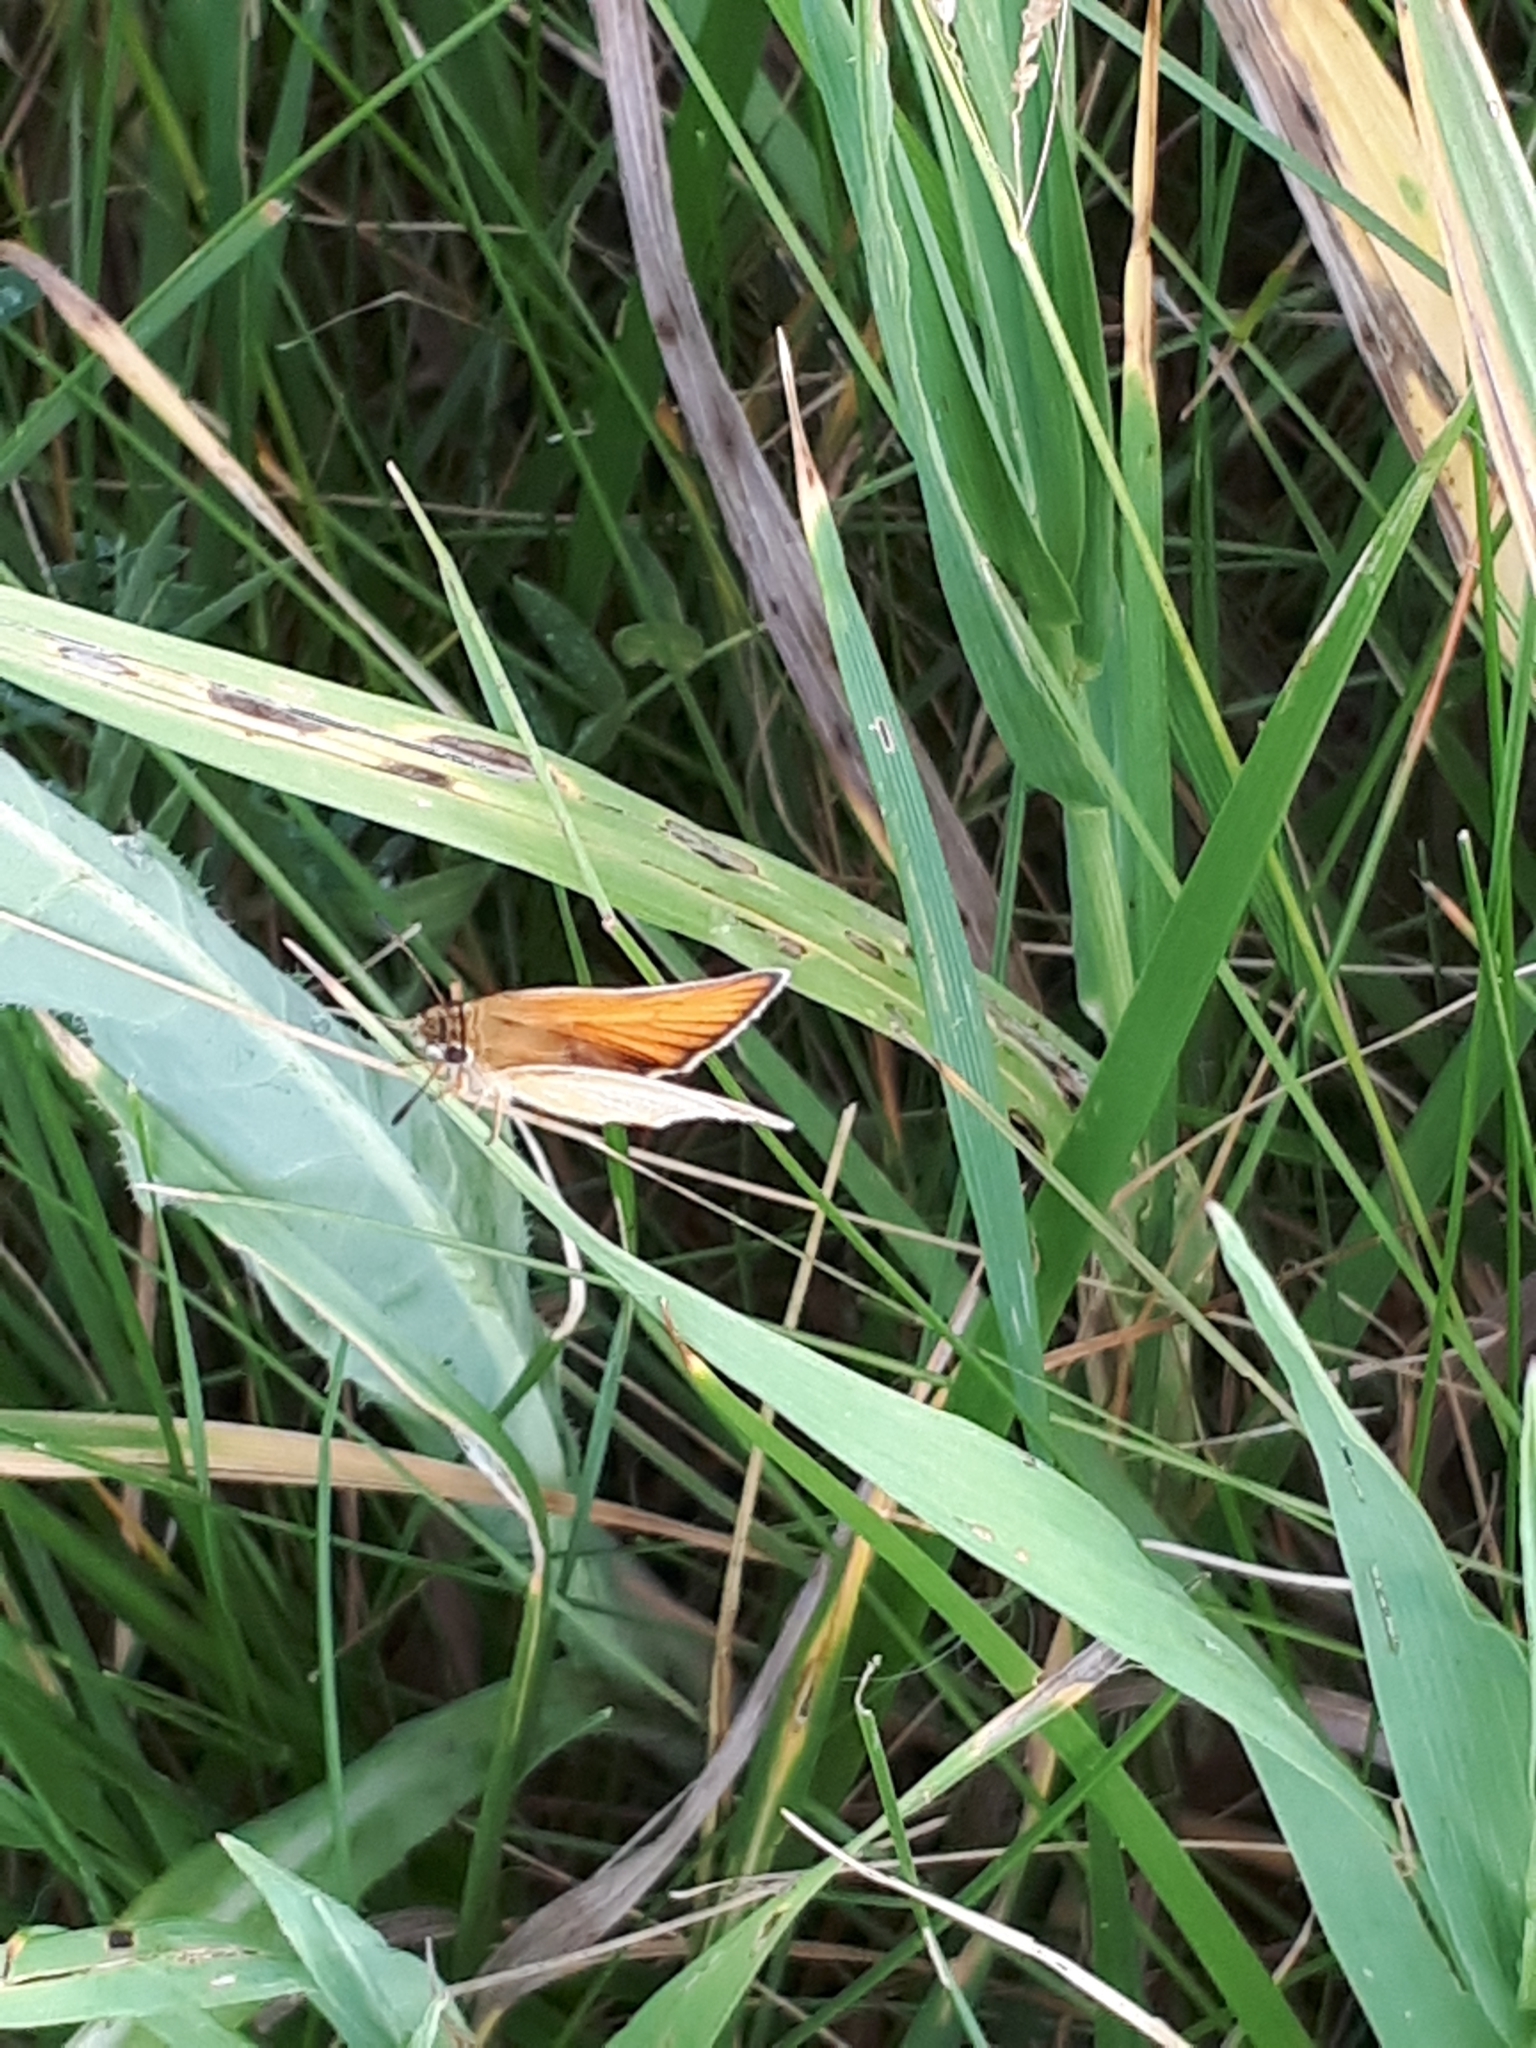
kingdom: Animalia
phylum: Arthropoda
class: Insecta
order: Lepidoptera
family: Hesperiidae
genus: Thymelicus
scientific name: Thymelicus lineola
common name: Essex skipper
